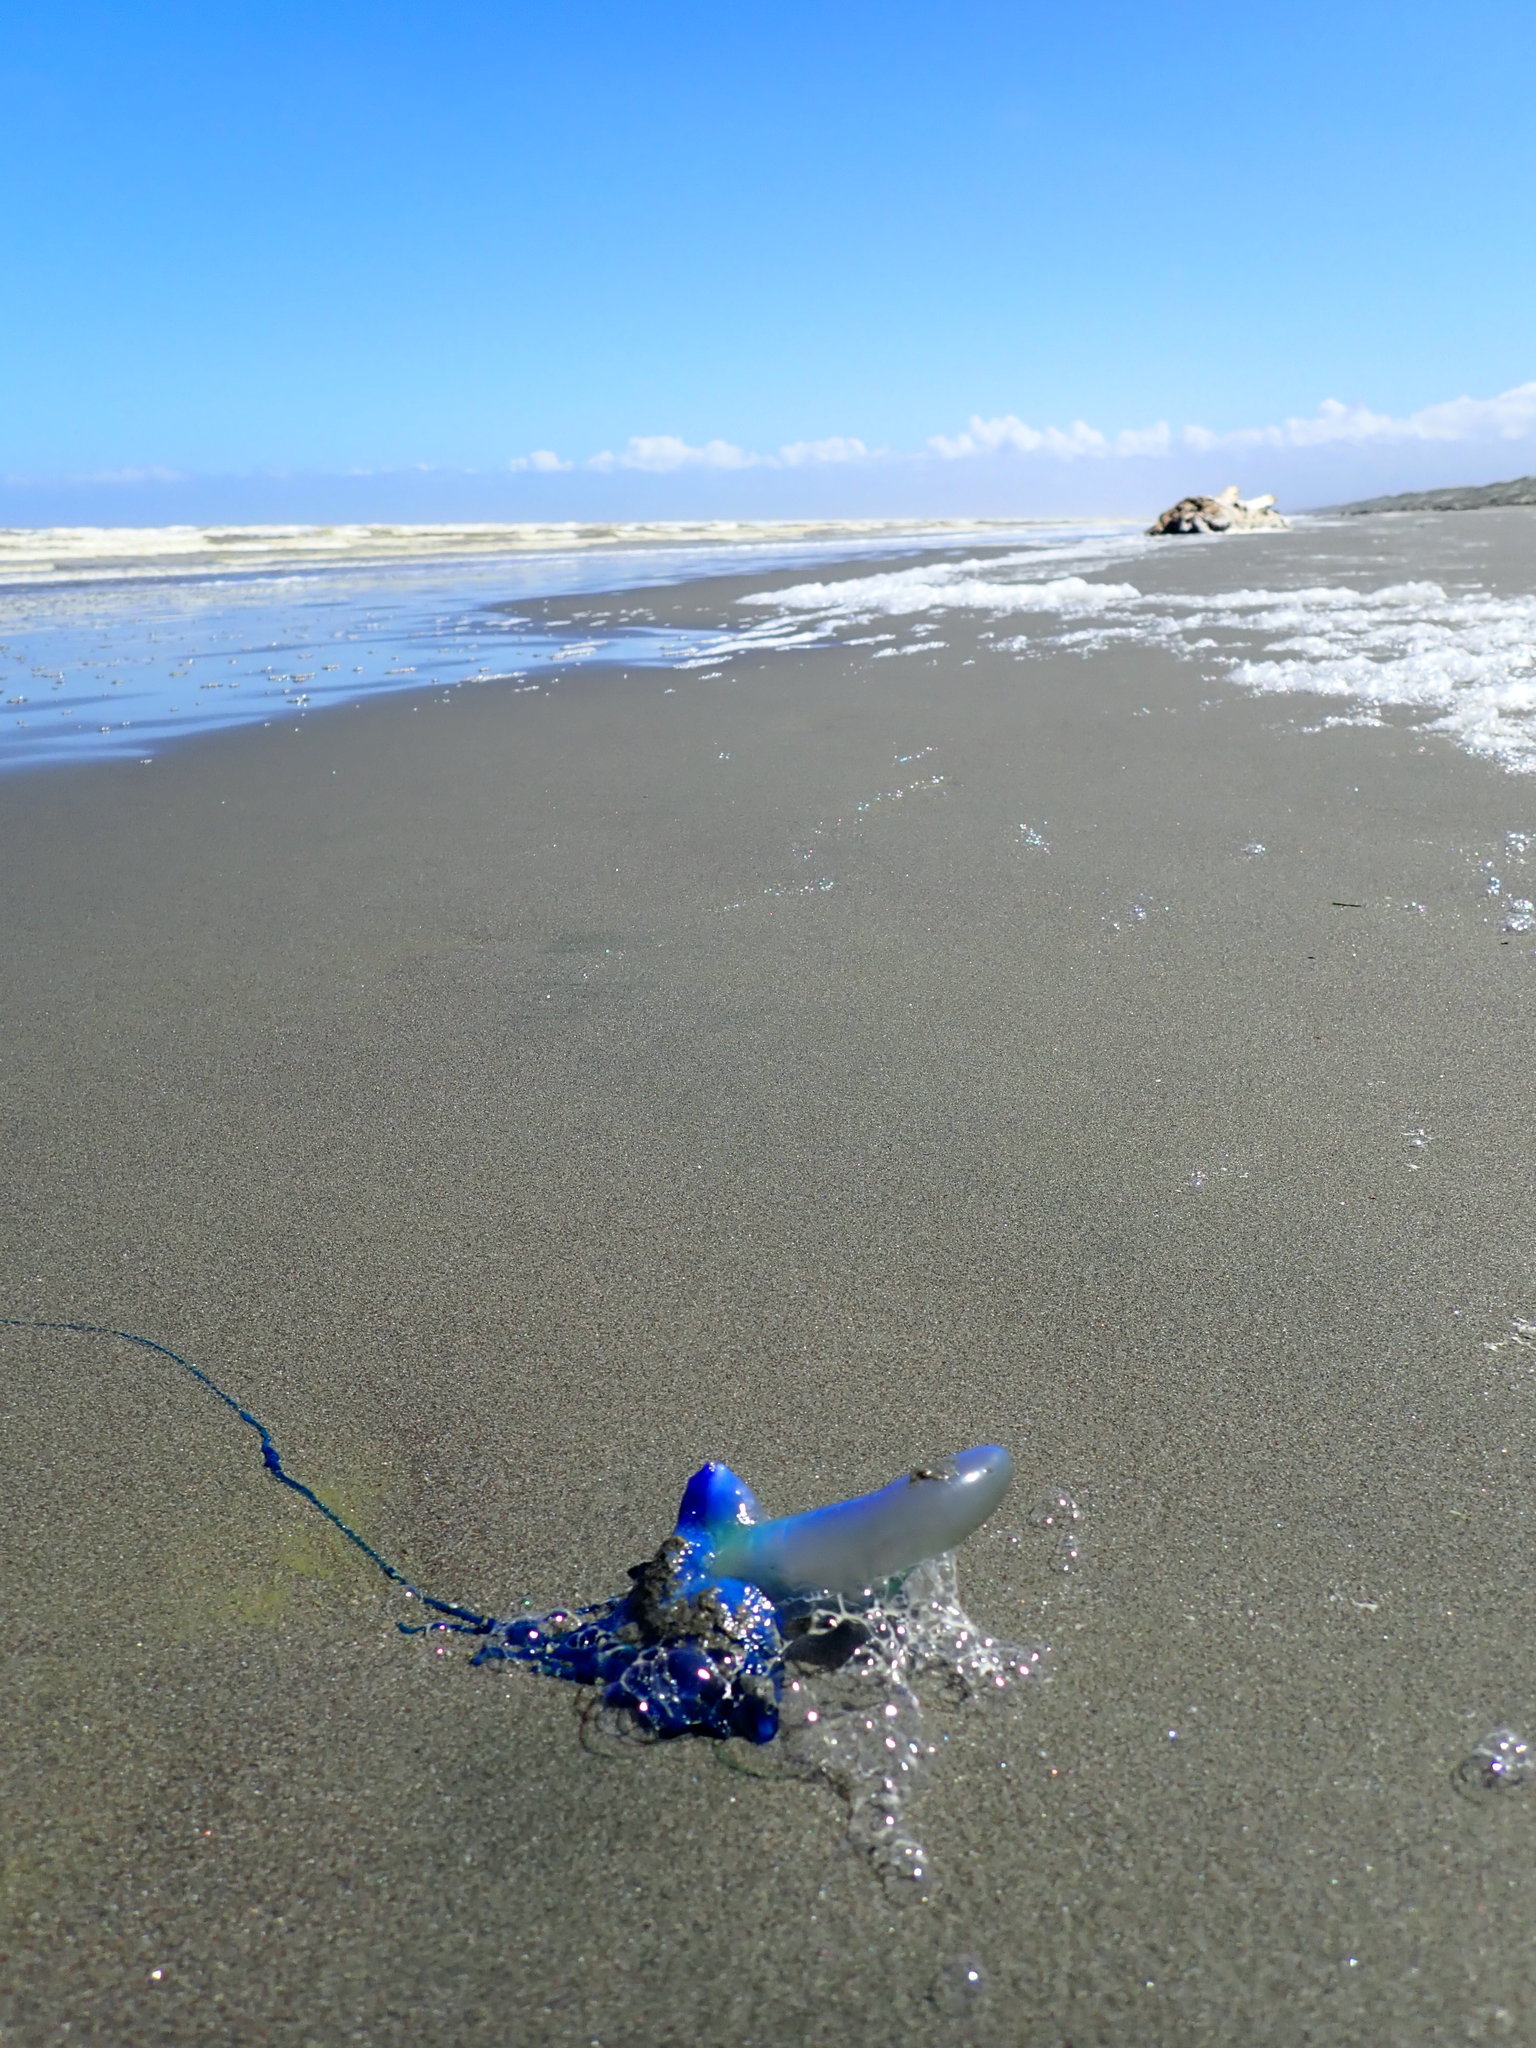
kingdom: Animalia
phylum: Cnidaria
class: Hydrozoa
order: Siphonophorae
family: Physaliidae
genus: Physalia
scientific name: Physalia physalis
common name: Portuguese man-of-war
